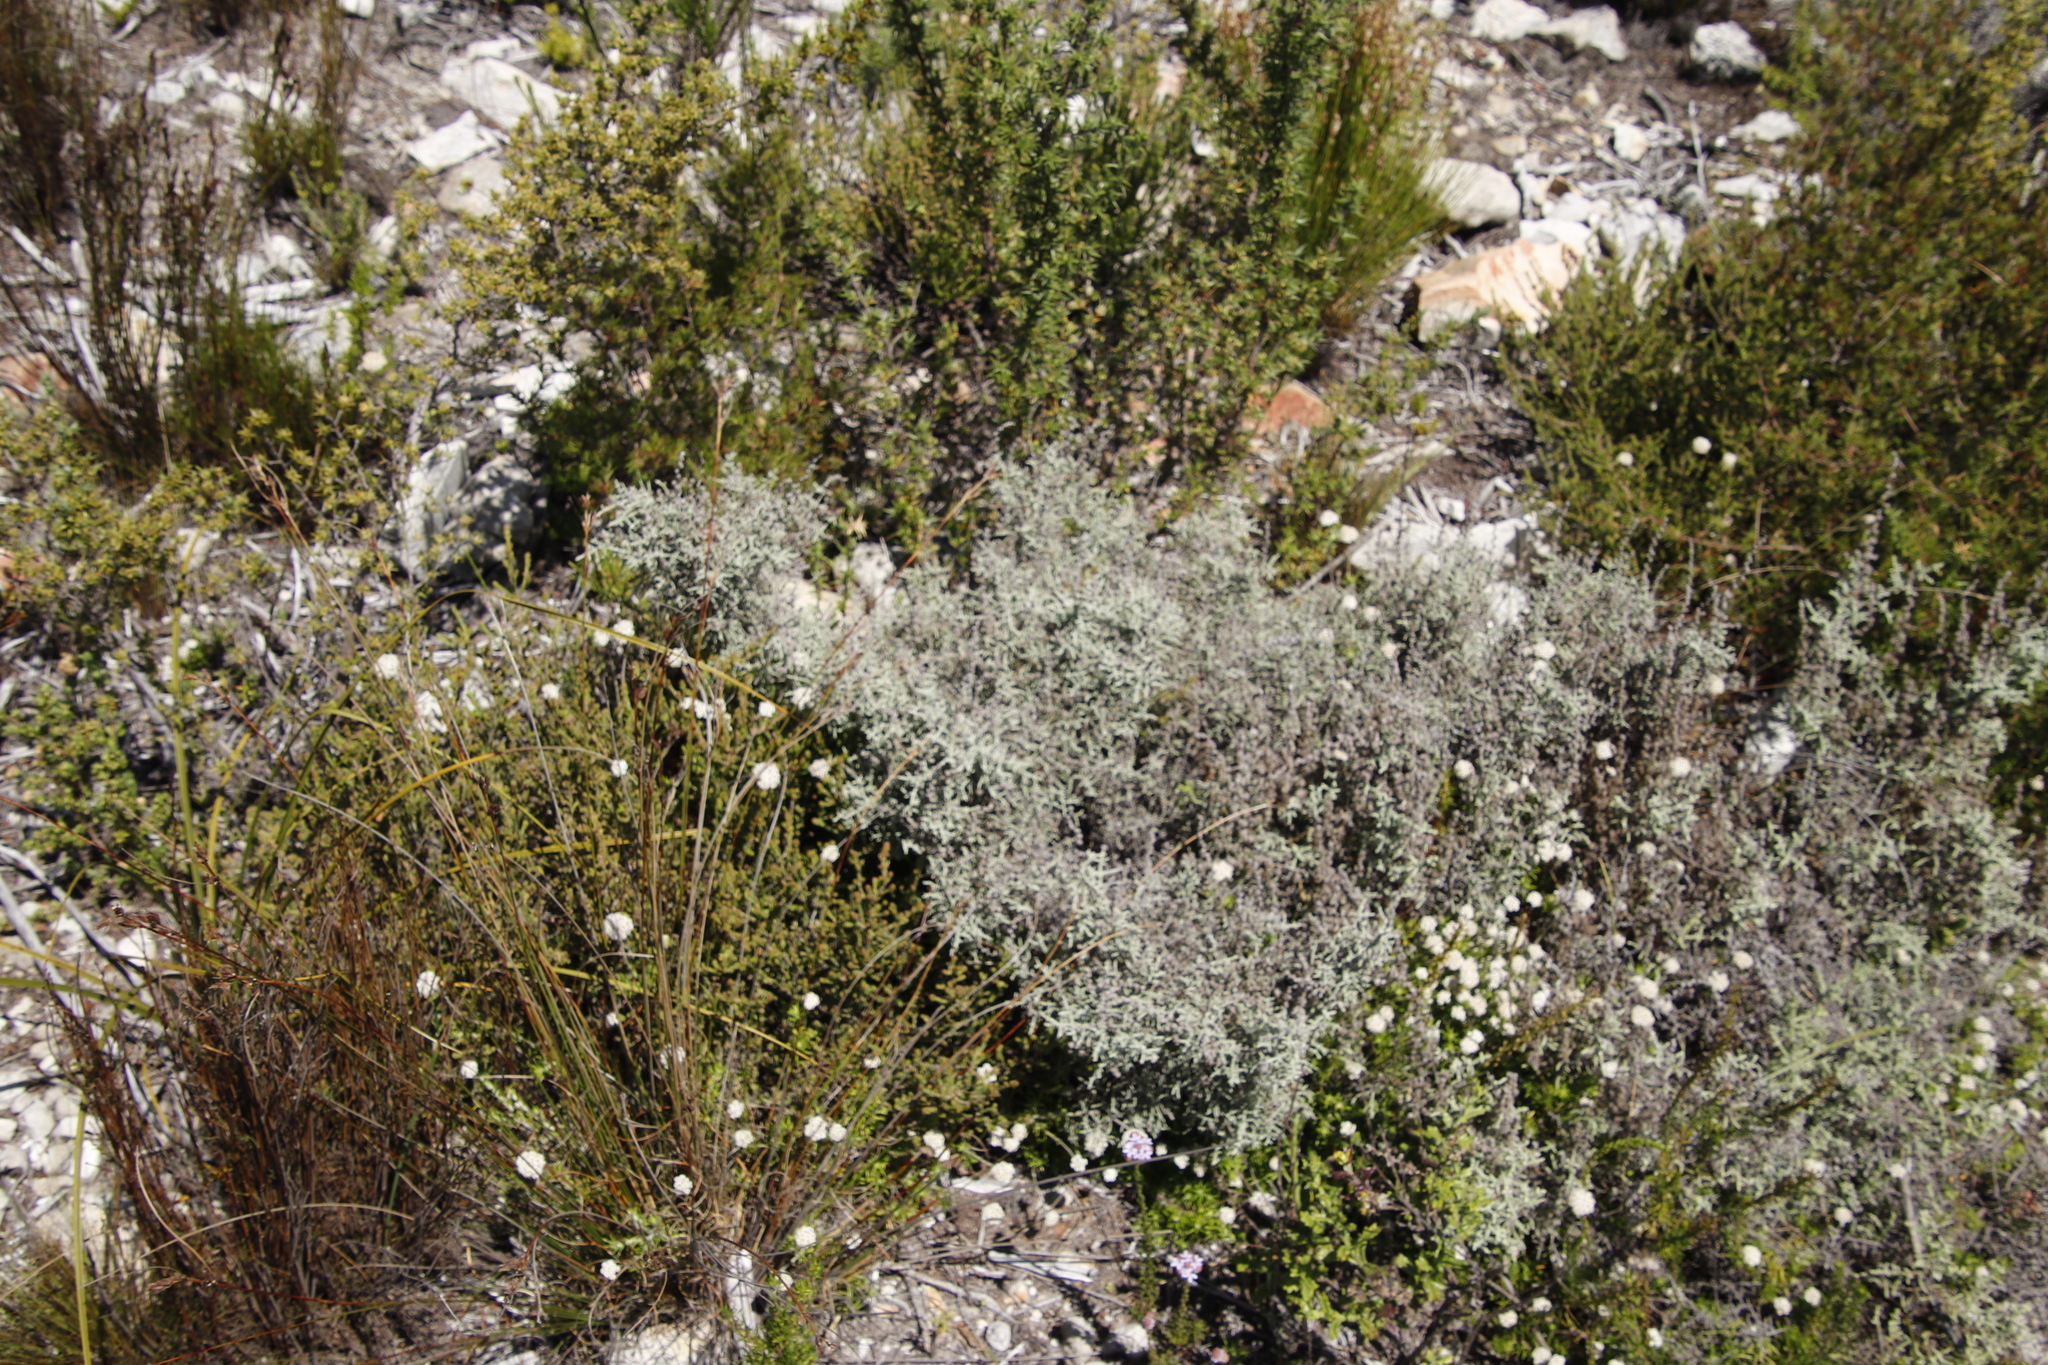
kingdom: Plantae
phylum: Tracheophyta
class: Magnoliopsida
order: Asterales
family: Asteraceae
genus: Seriphium
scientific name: Seriphium plumosum
